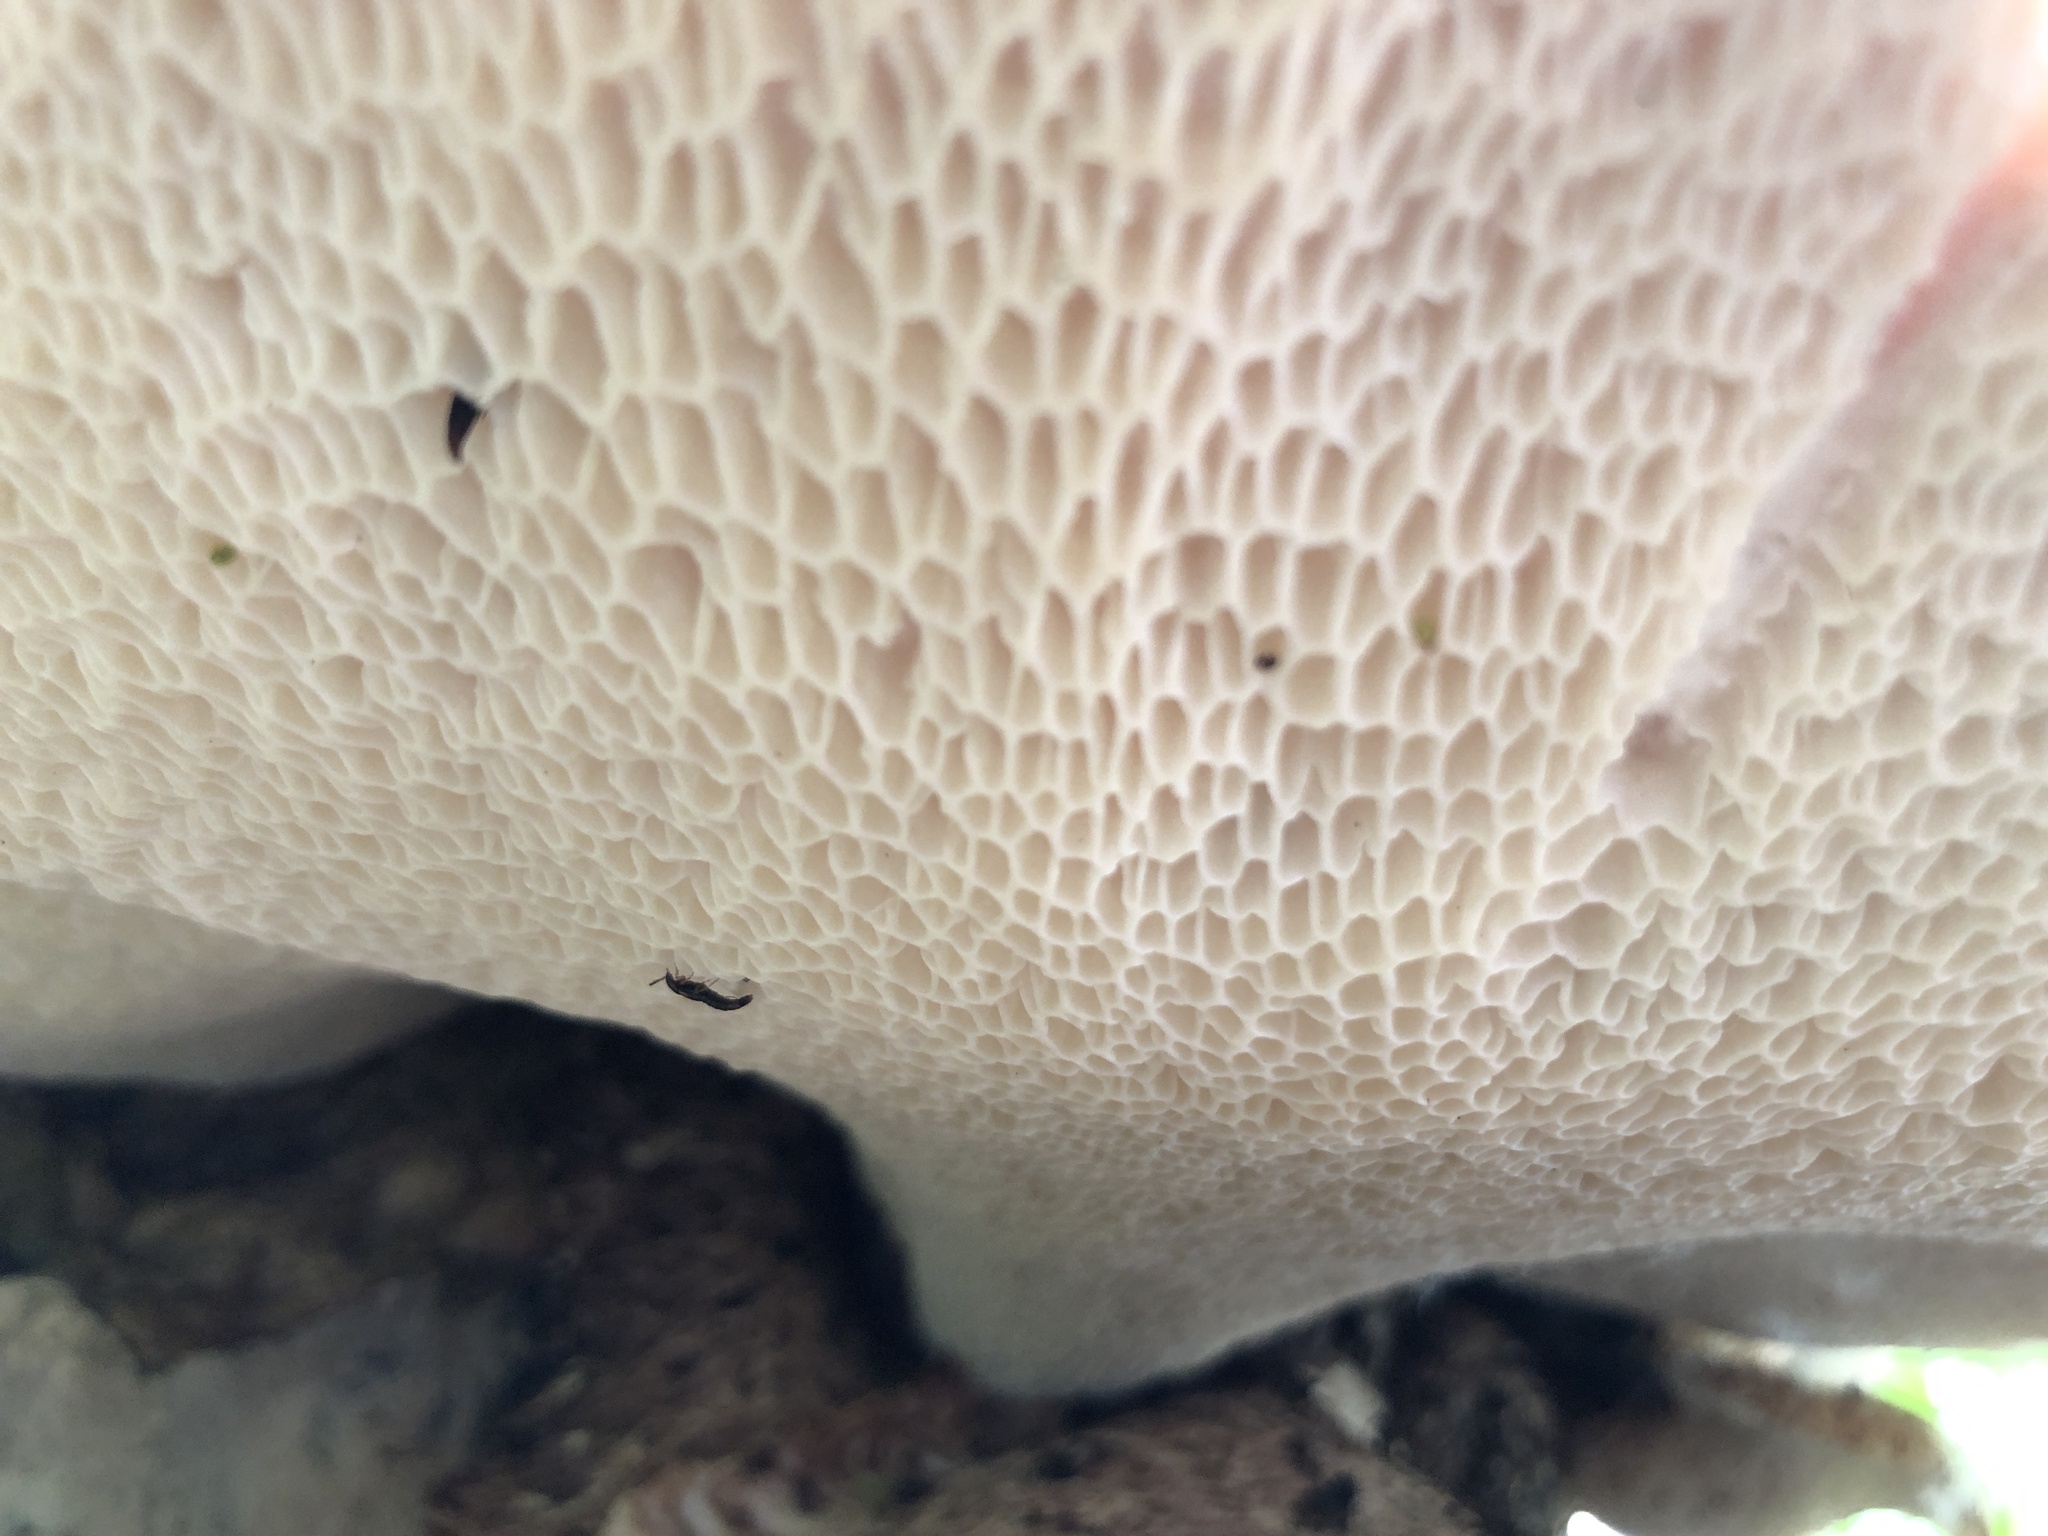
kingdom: Fungi
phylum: Basidiomycota
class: Agaricomycetes
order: Polyporales
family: Polyporaceae
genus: Cerioporus
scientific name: Cerioporus squamosus
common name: Dryad's saddle
